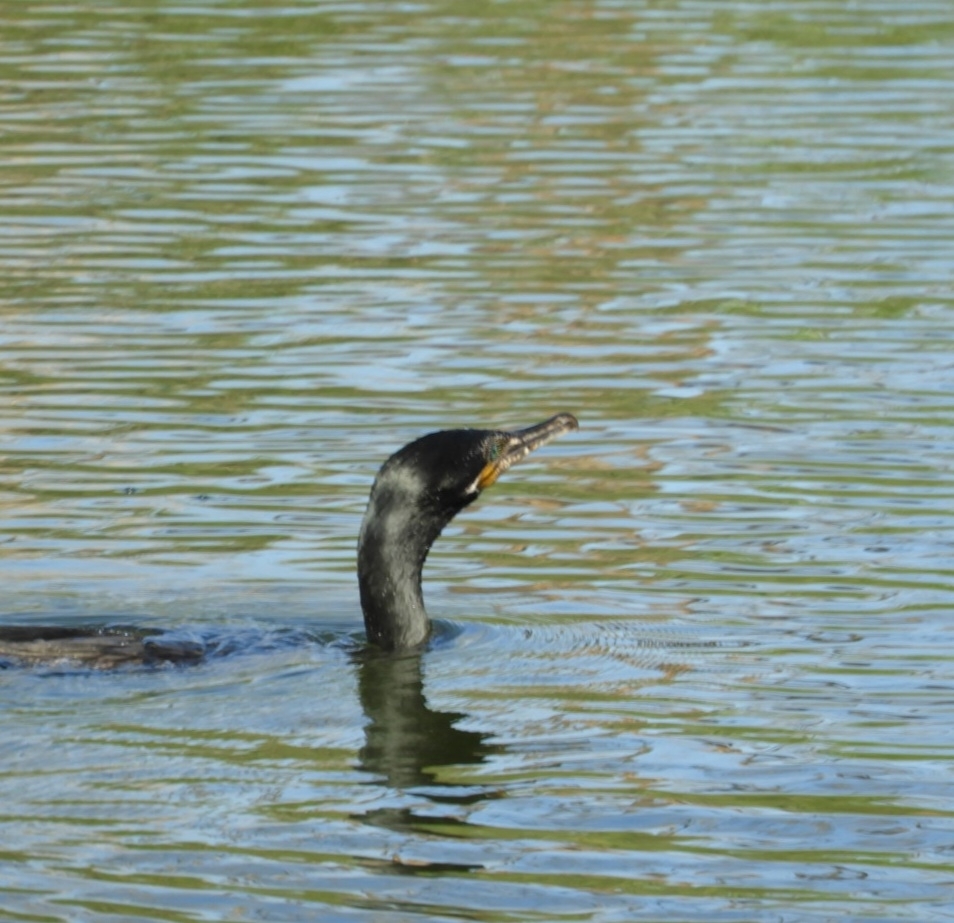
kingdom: Animalia
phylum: Chordata
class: Aves
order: Suliformes
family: Phalacrocoracidae
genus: Phalacrocorax
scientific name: Phalacrocorax brasilianus
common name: Neotropic cormorant
